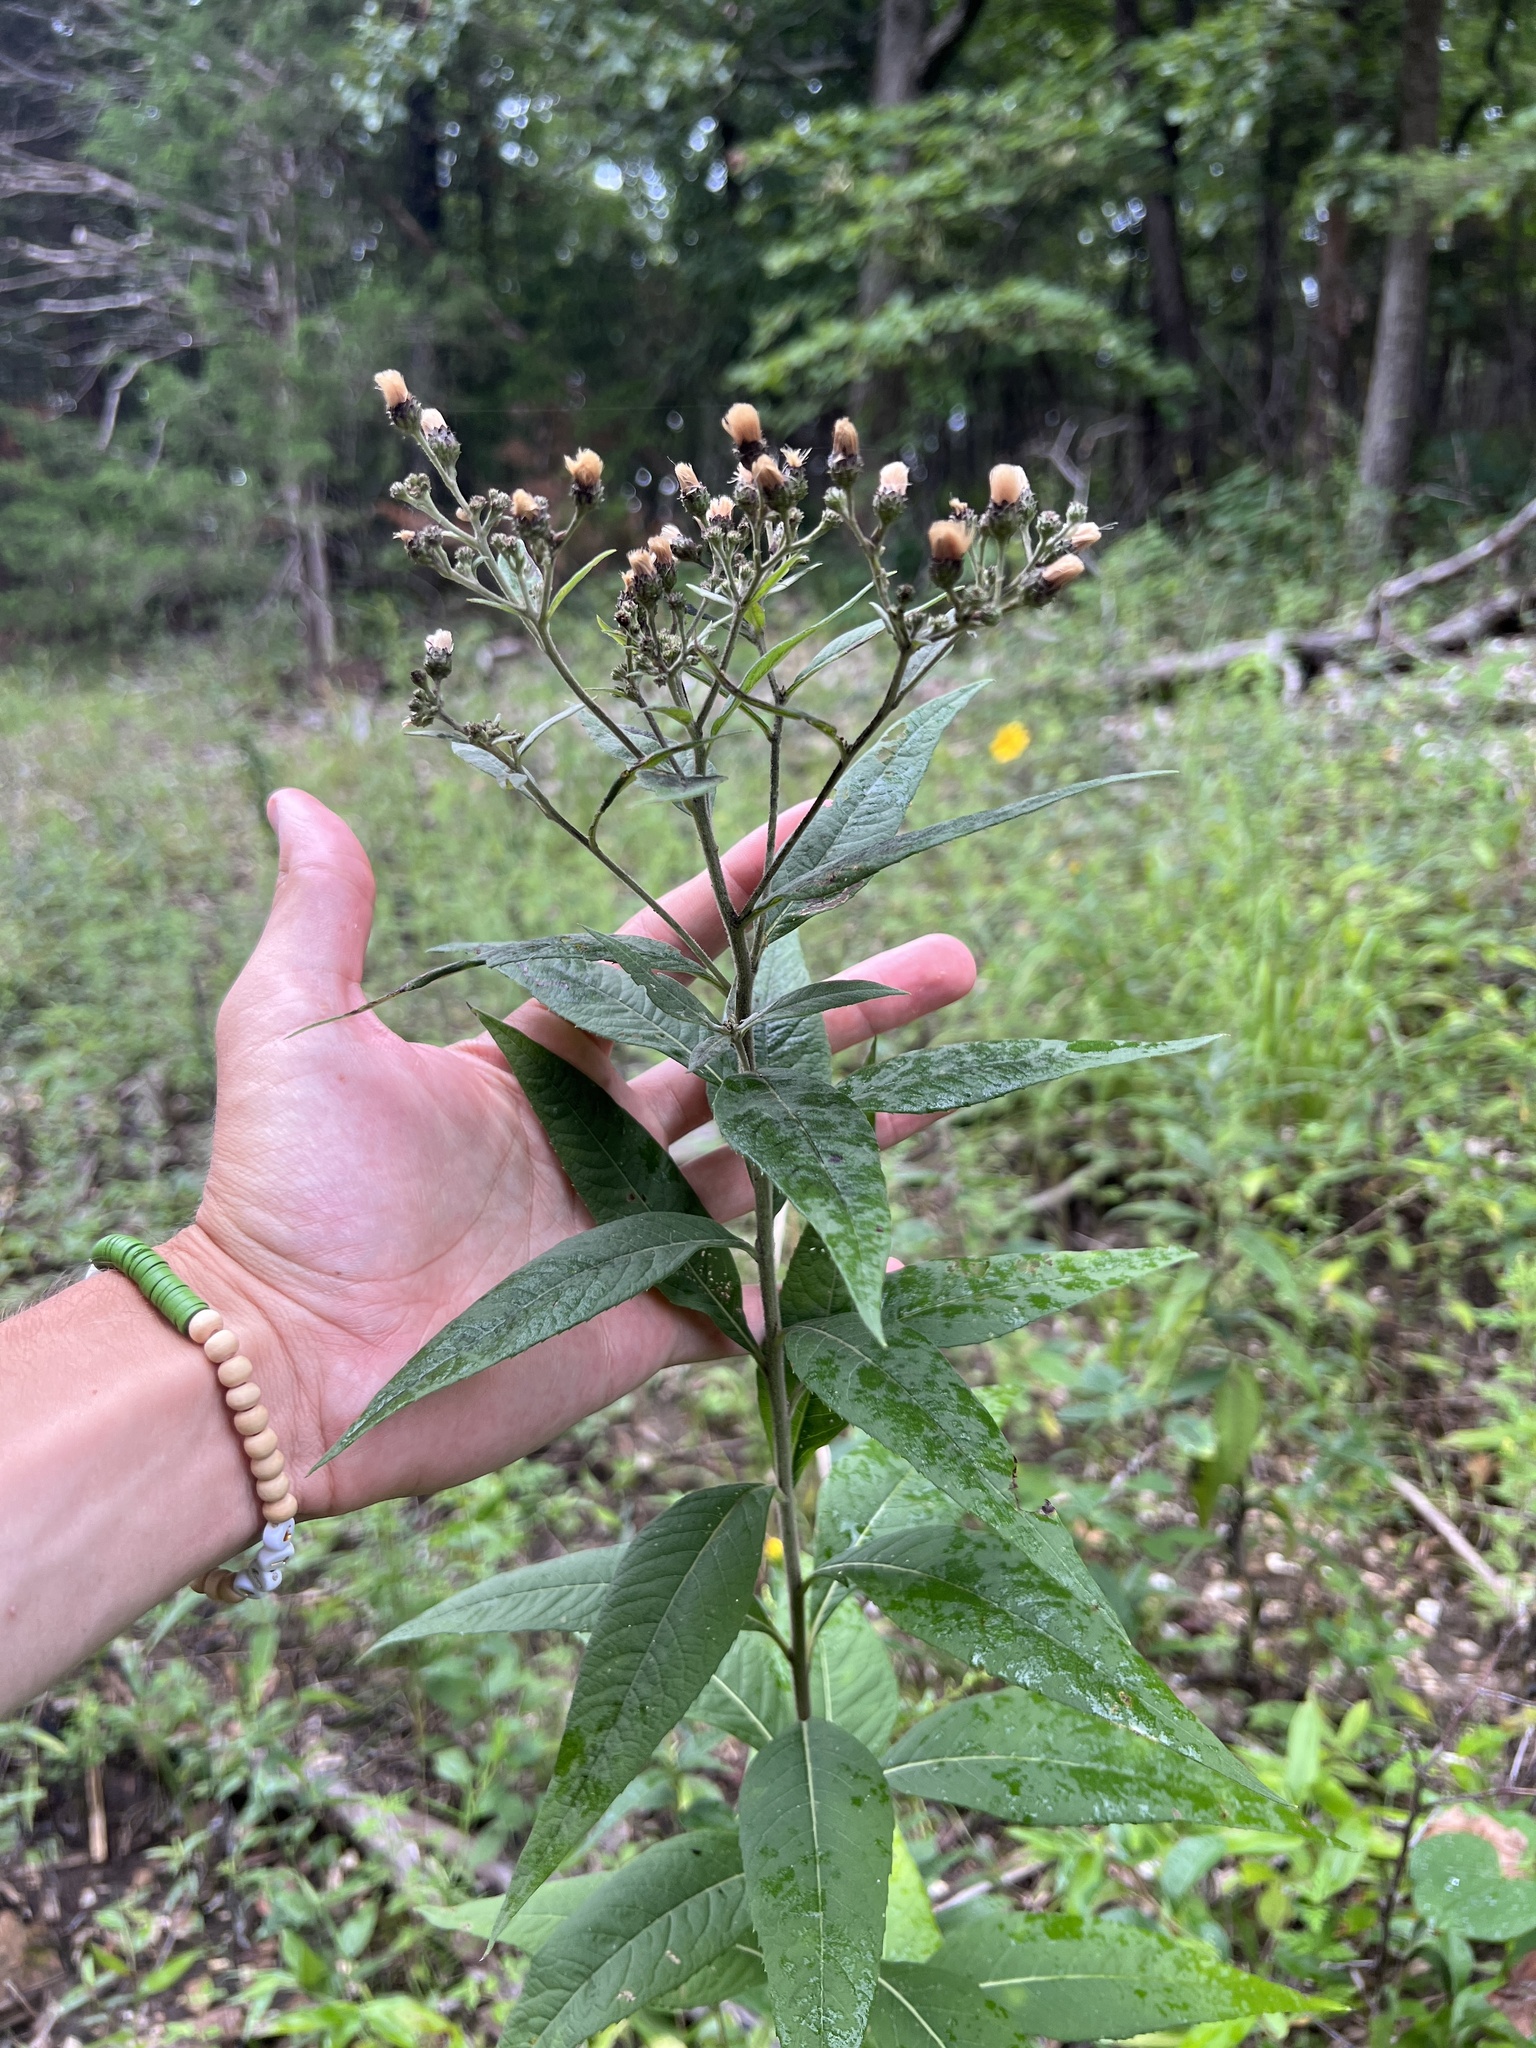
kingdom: Plantae
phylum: Tracheophyta
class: Magnoliopsida
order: Asterales
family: Asteraceae
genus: Vernonia
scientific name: Vernonia baldwinii
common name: Western ironweed
